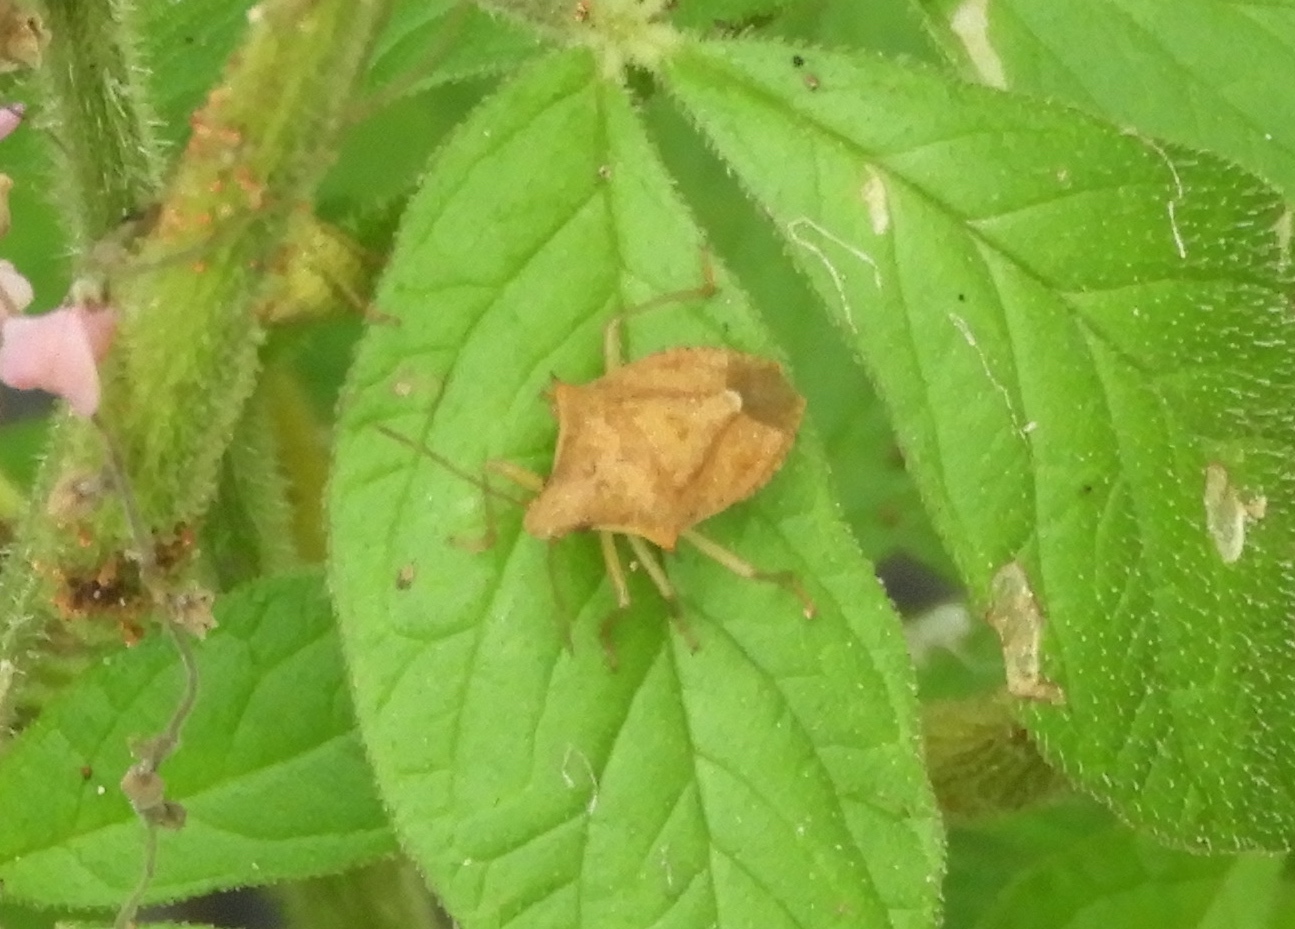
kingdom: Animalia
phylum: Arthropoda
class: Insecta
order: Hemiptera
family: Pentatomidae
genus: Euschistus
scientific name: Euschistus
